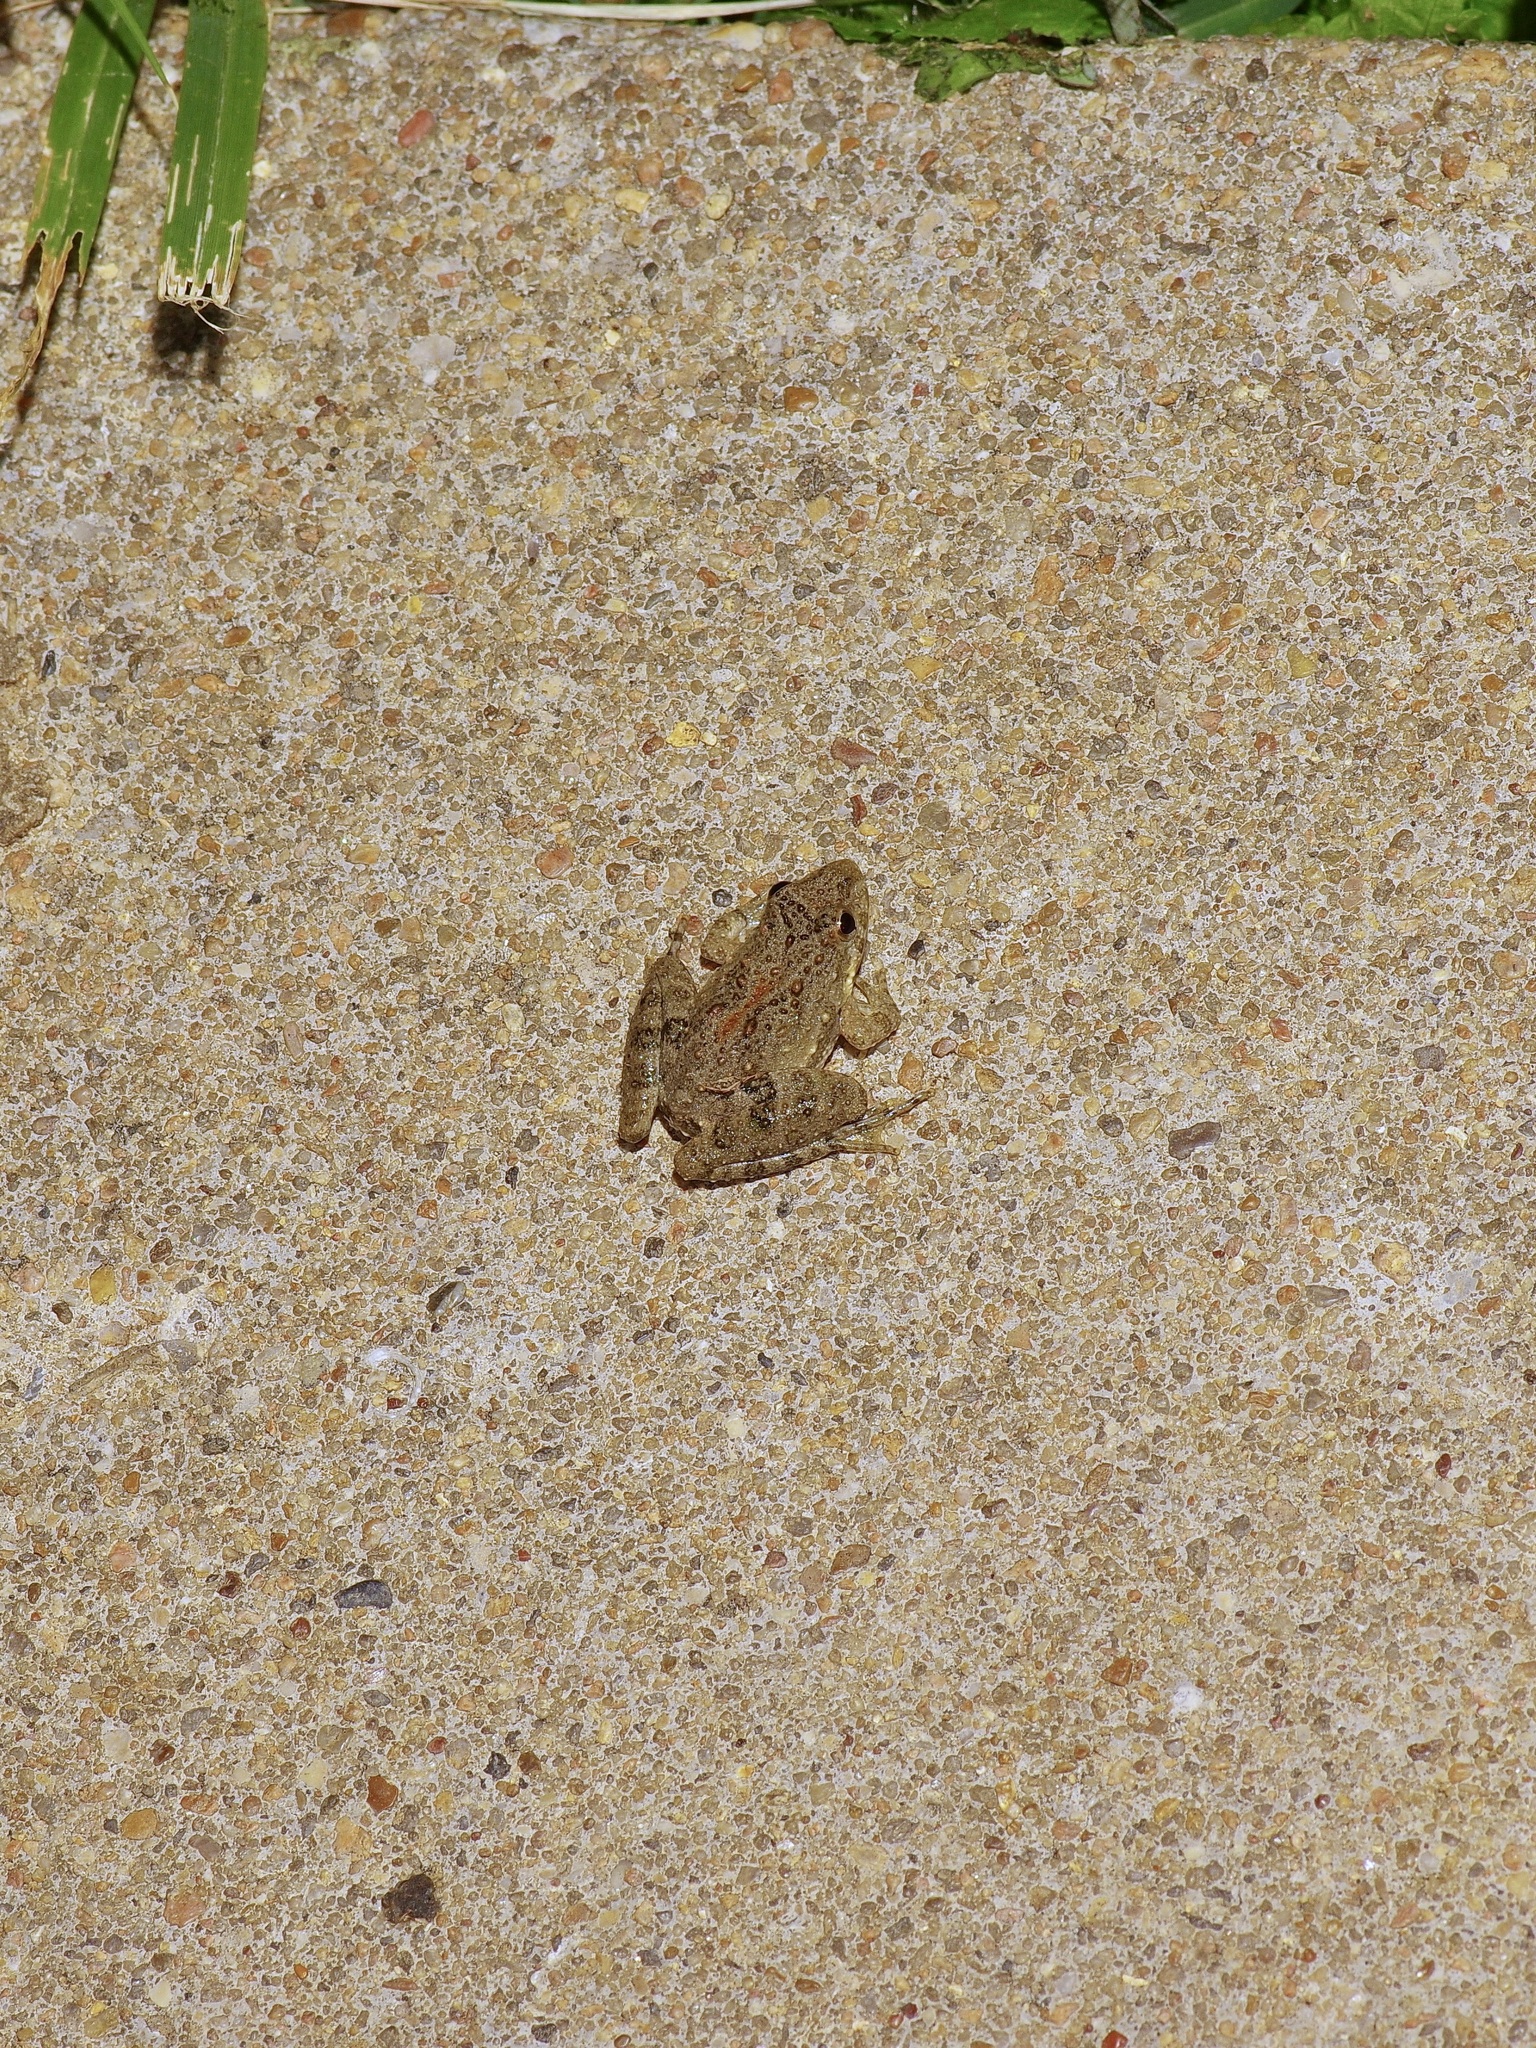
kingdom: Animalia
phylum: Chordata
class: Amphibia
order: Anura
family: Hylidae
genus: Acris
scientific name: Acris blanchardi
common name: Blanchard's cricket frog
